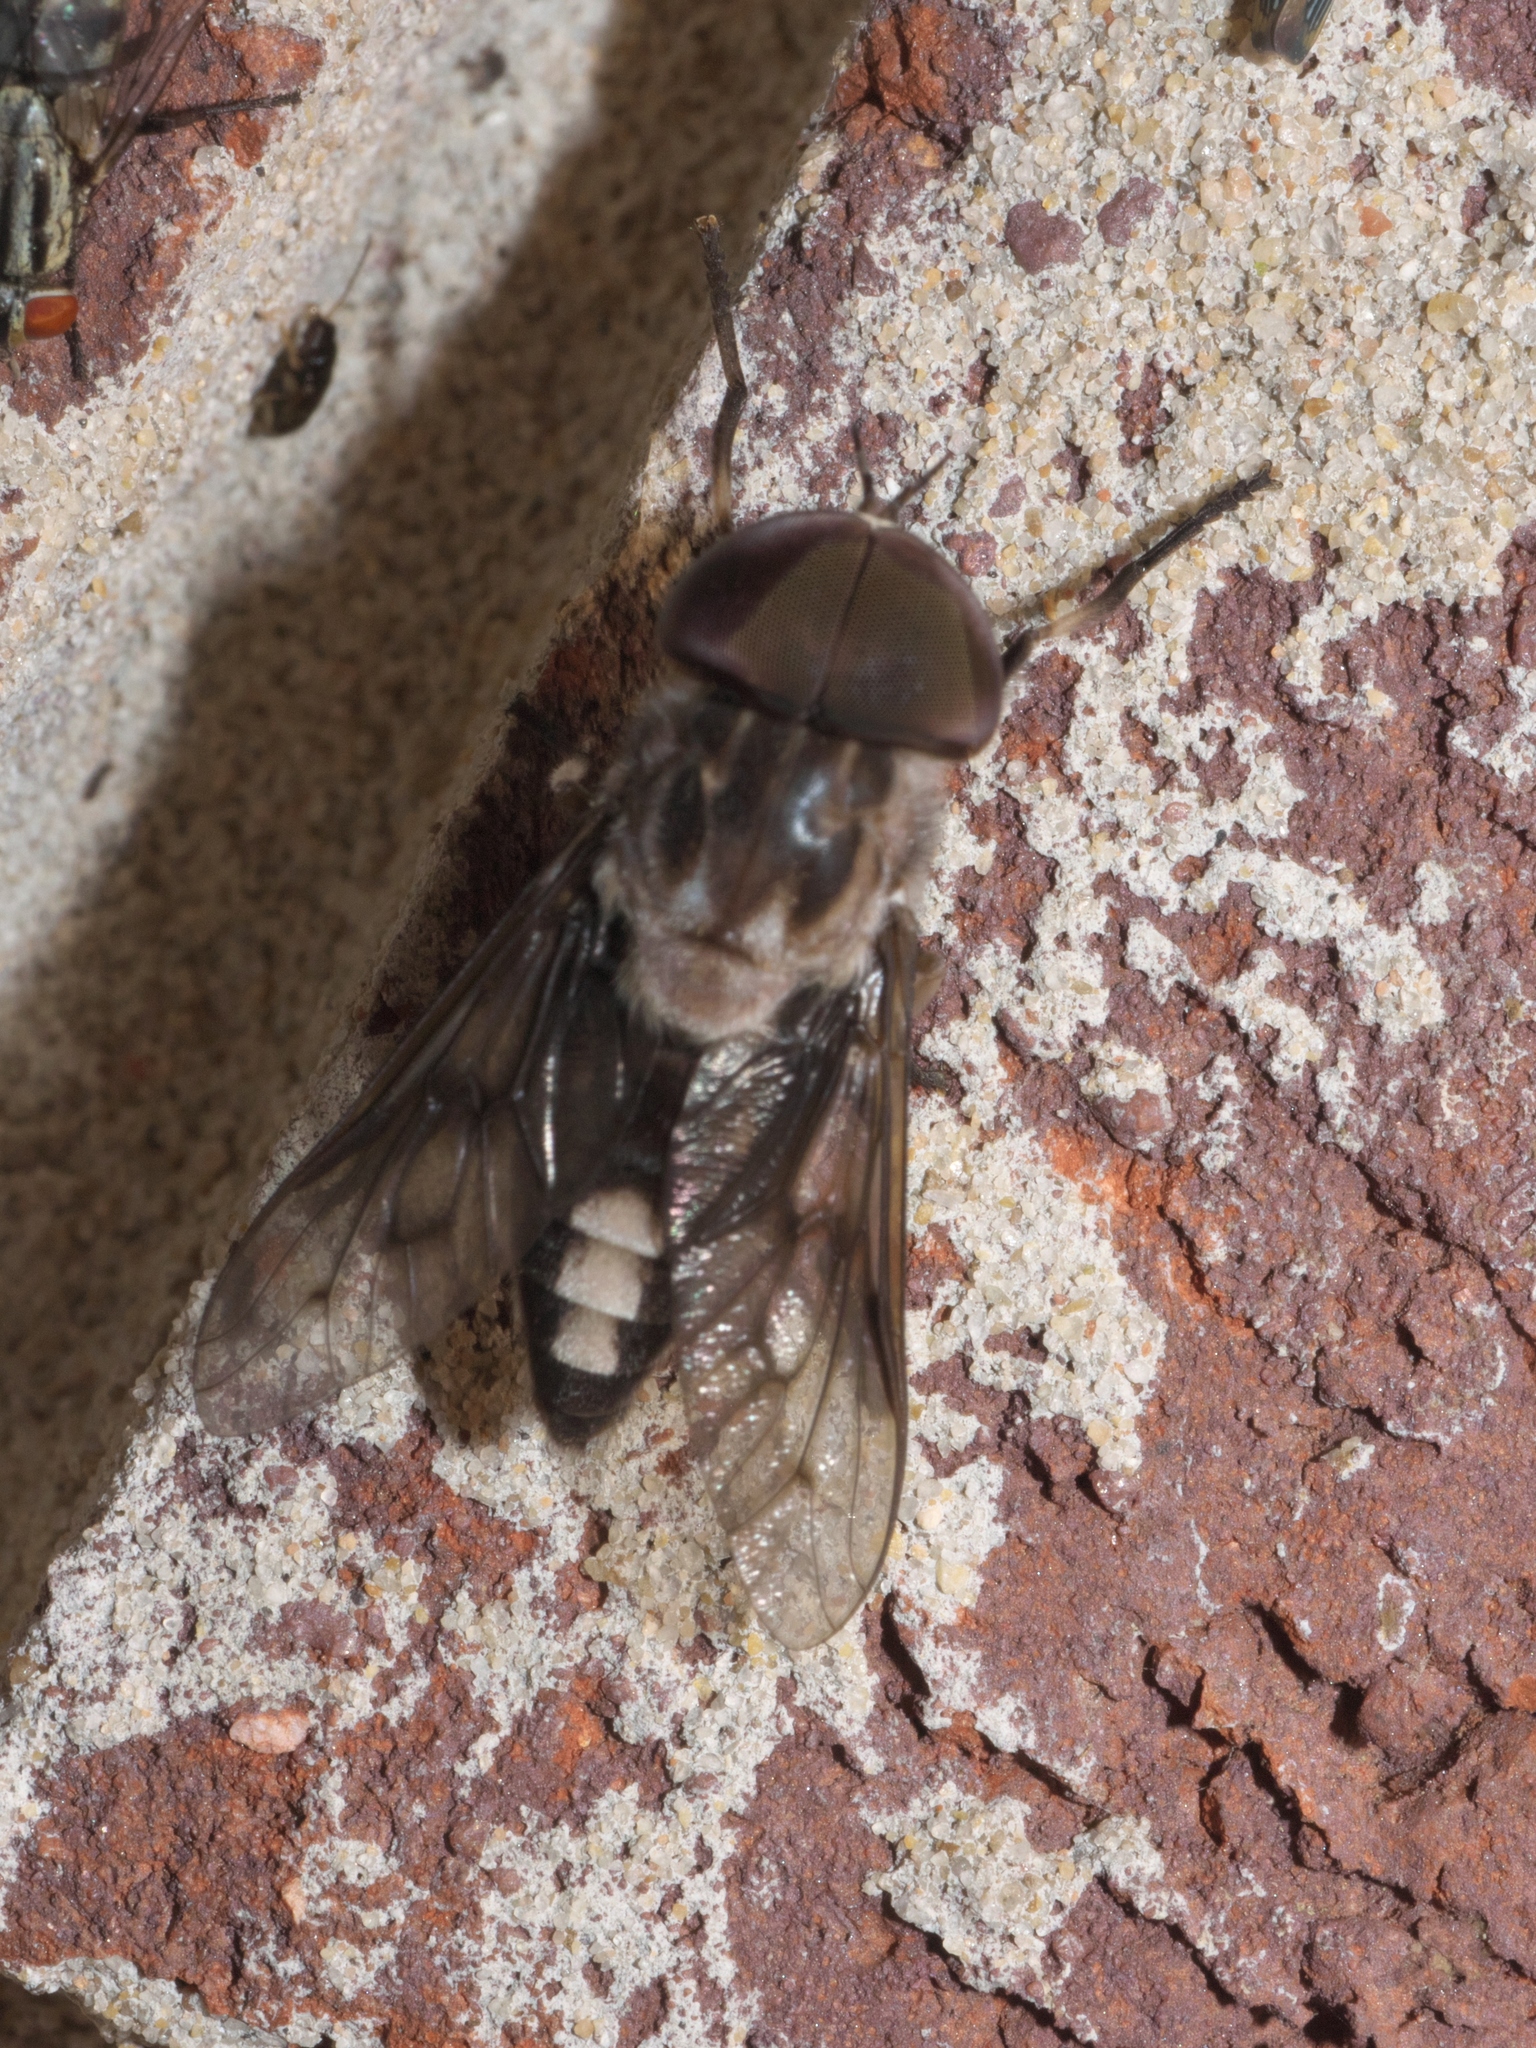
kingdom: Animalia
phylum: Arthropoda
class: Insecta
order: Diptera
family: Tabanidae
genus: Tabanus
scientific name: Tabanus trimaculatus
